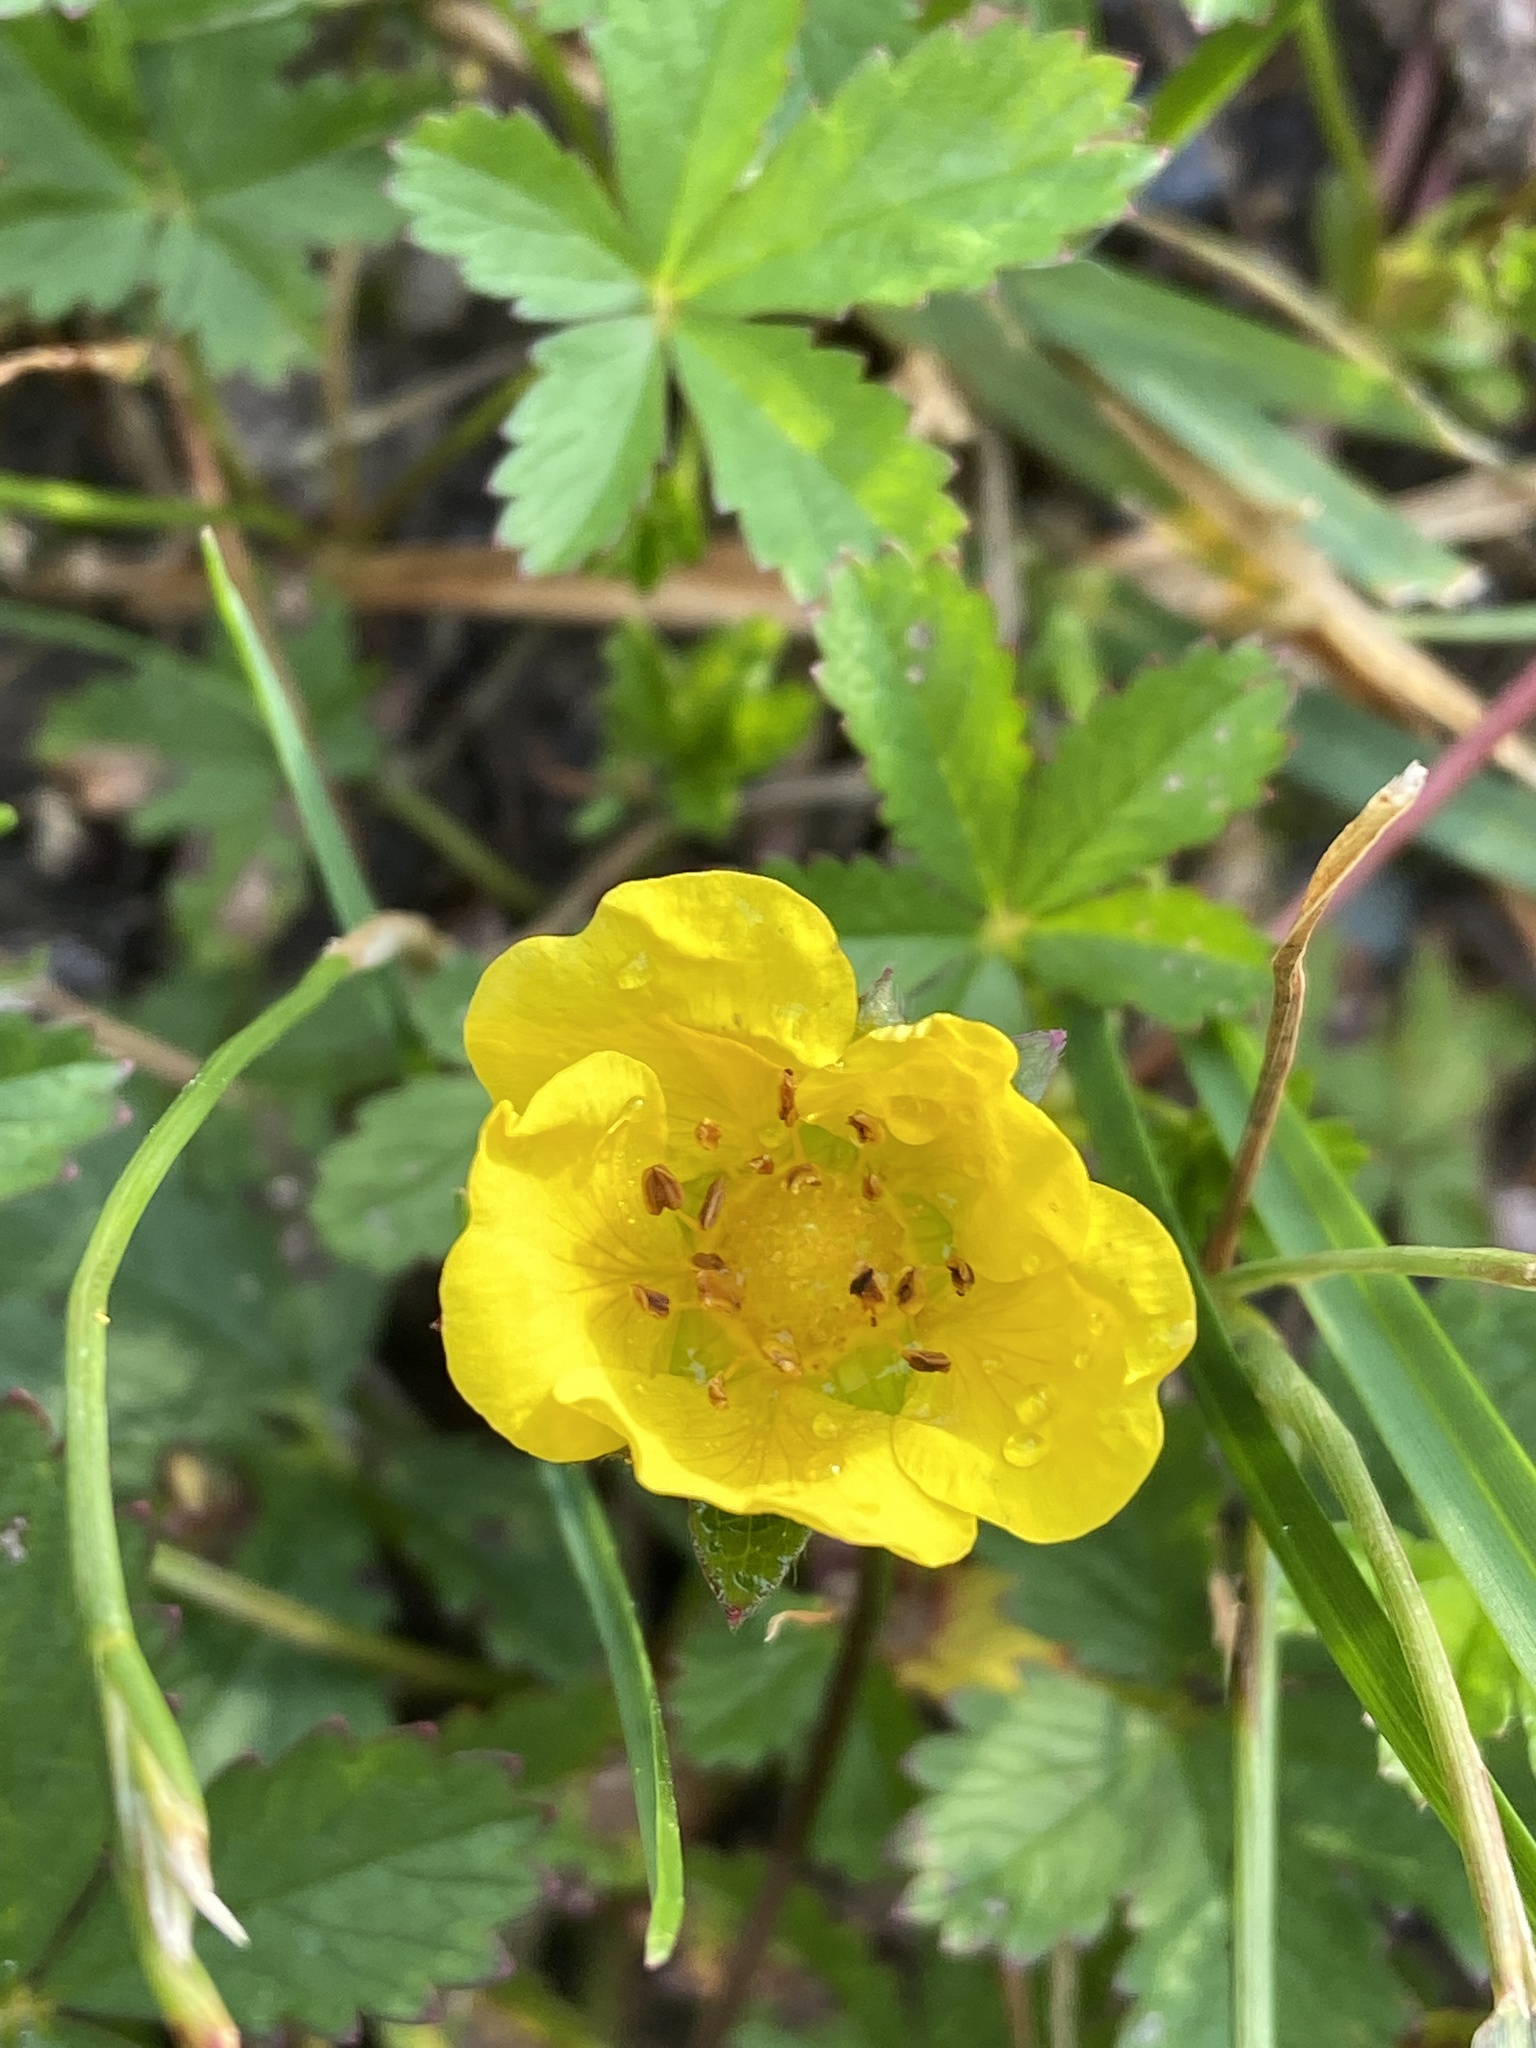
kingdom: Plantae
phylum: Tracheophyta
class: Magnoliopsida
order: Rosales
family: Rosaceae
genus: Potentilla
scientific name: Potentilla reptans
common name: Creeping cinquefoil
